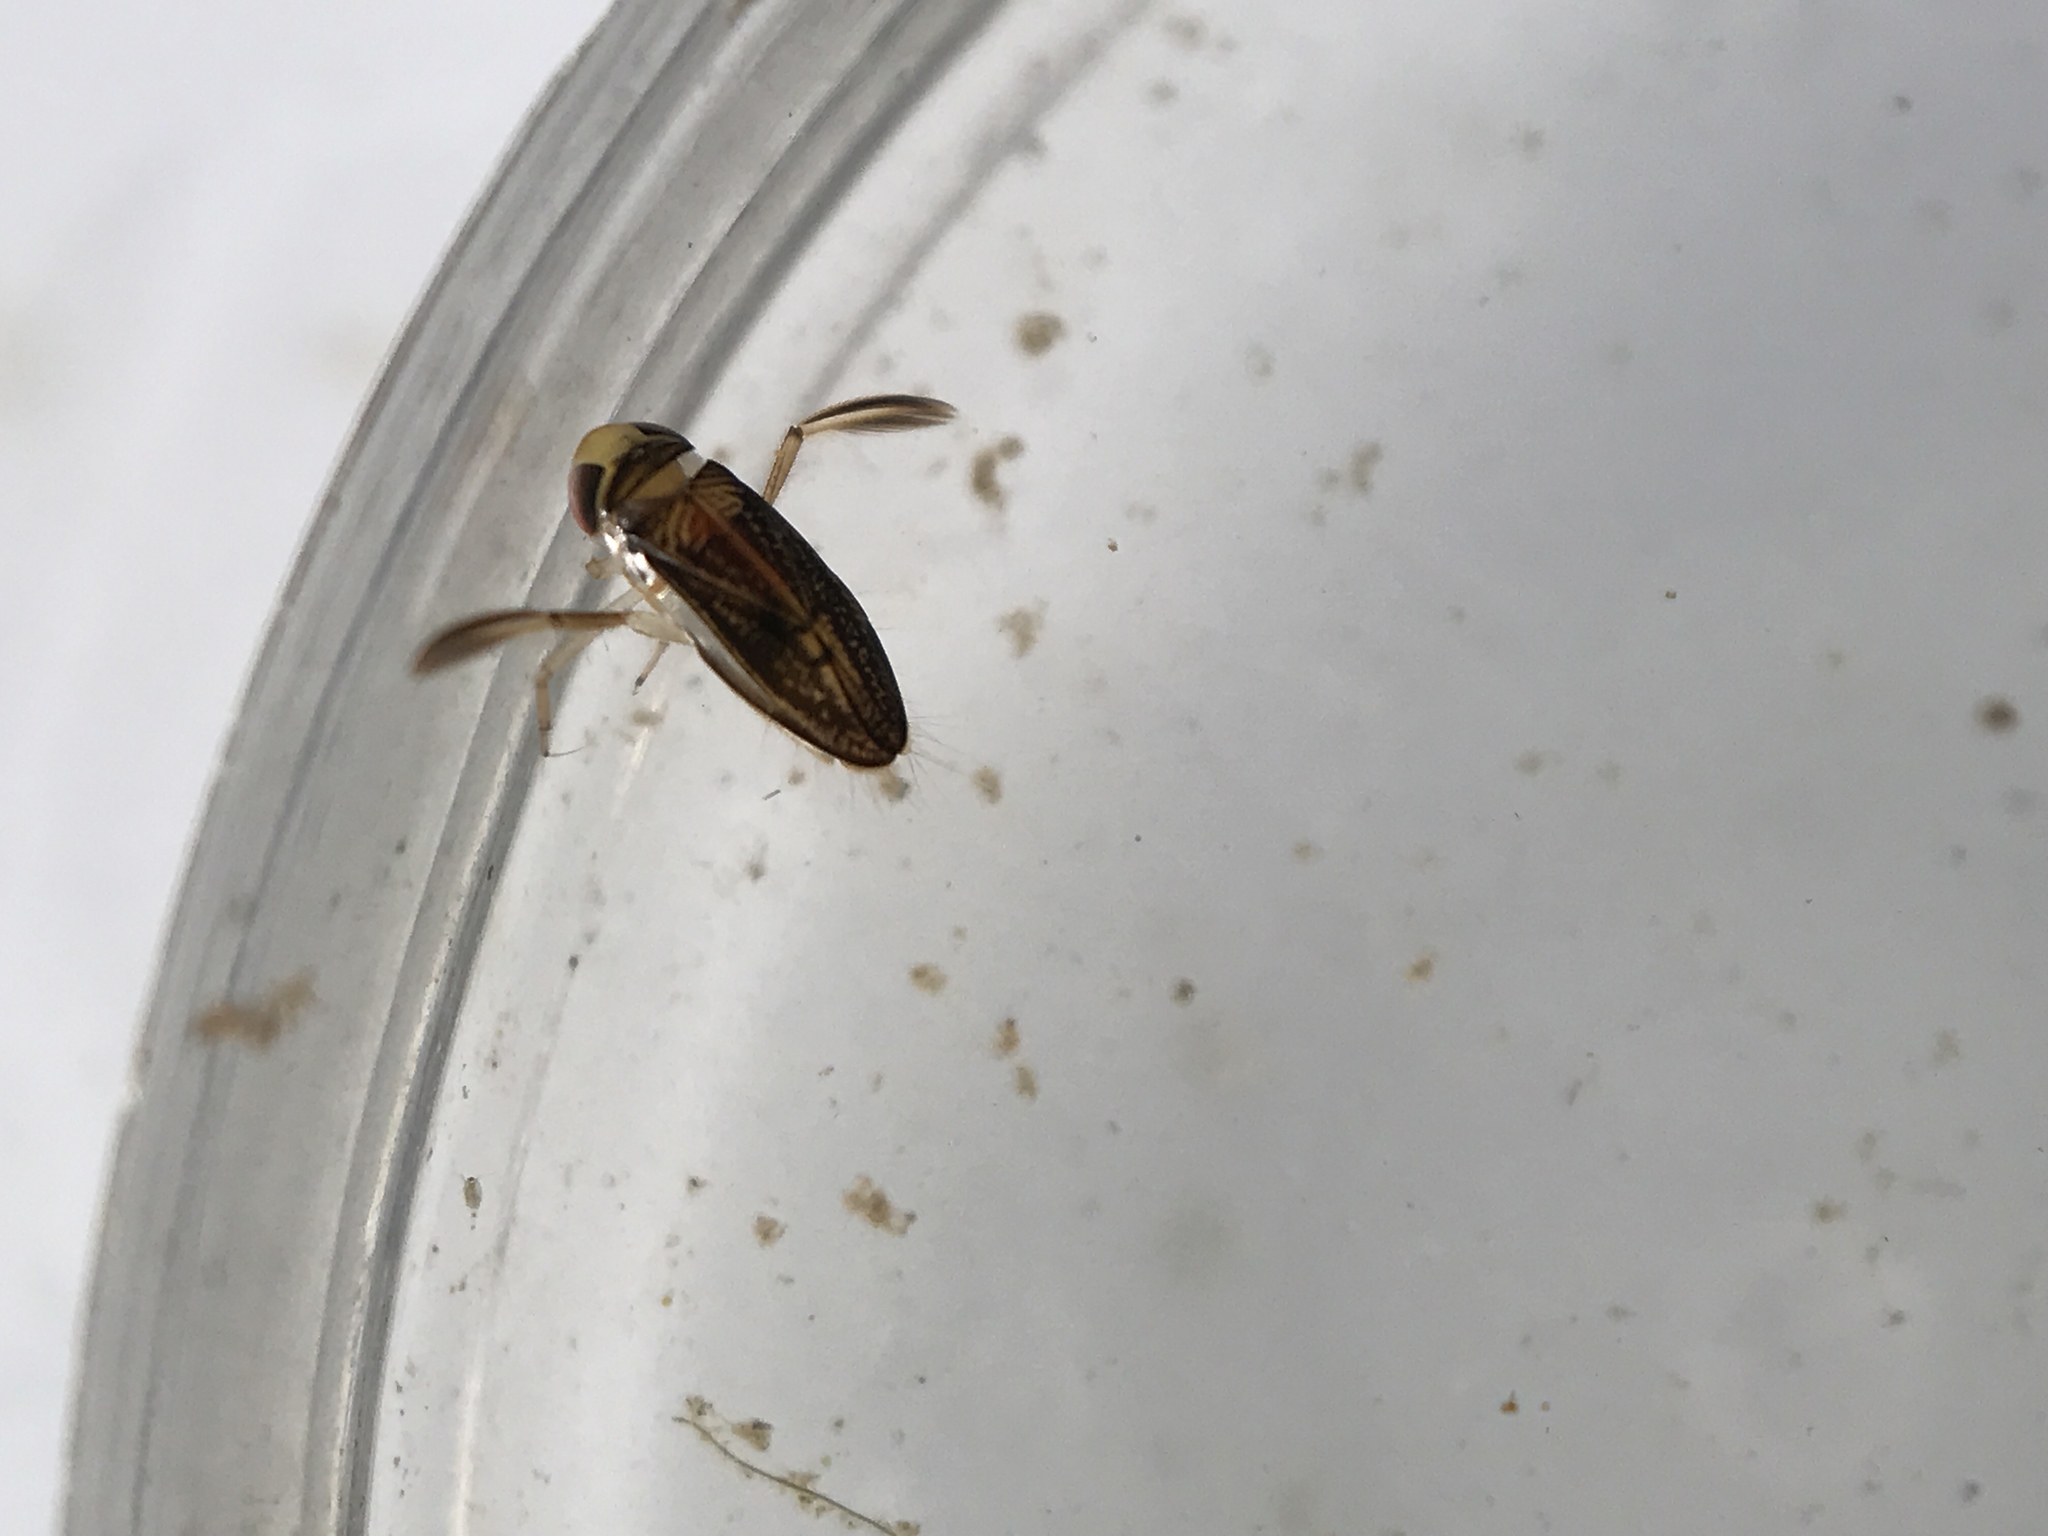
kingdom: Animalia
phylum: Arthropoda
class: Insecta
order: Hemiptera
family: Corixidae
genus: Trichocorixa
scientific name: Trichocorixa macroceps
